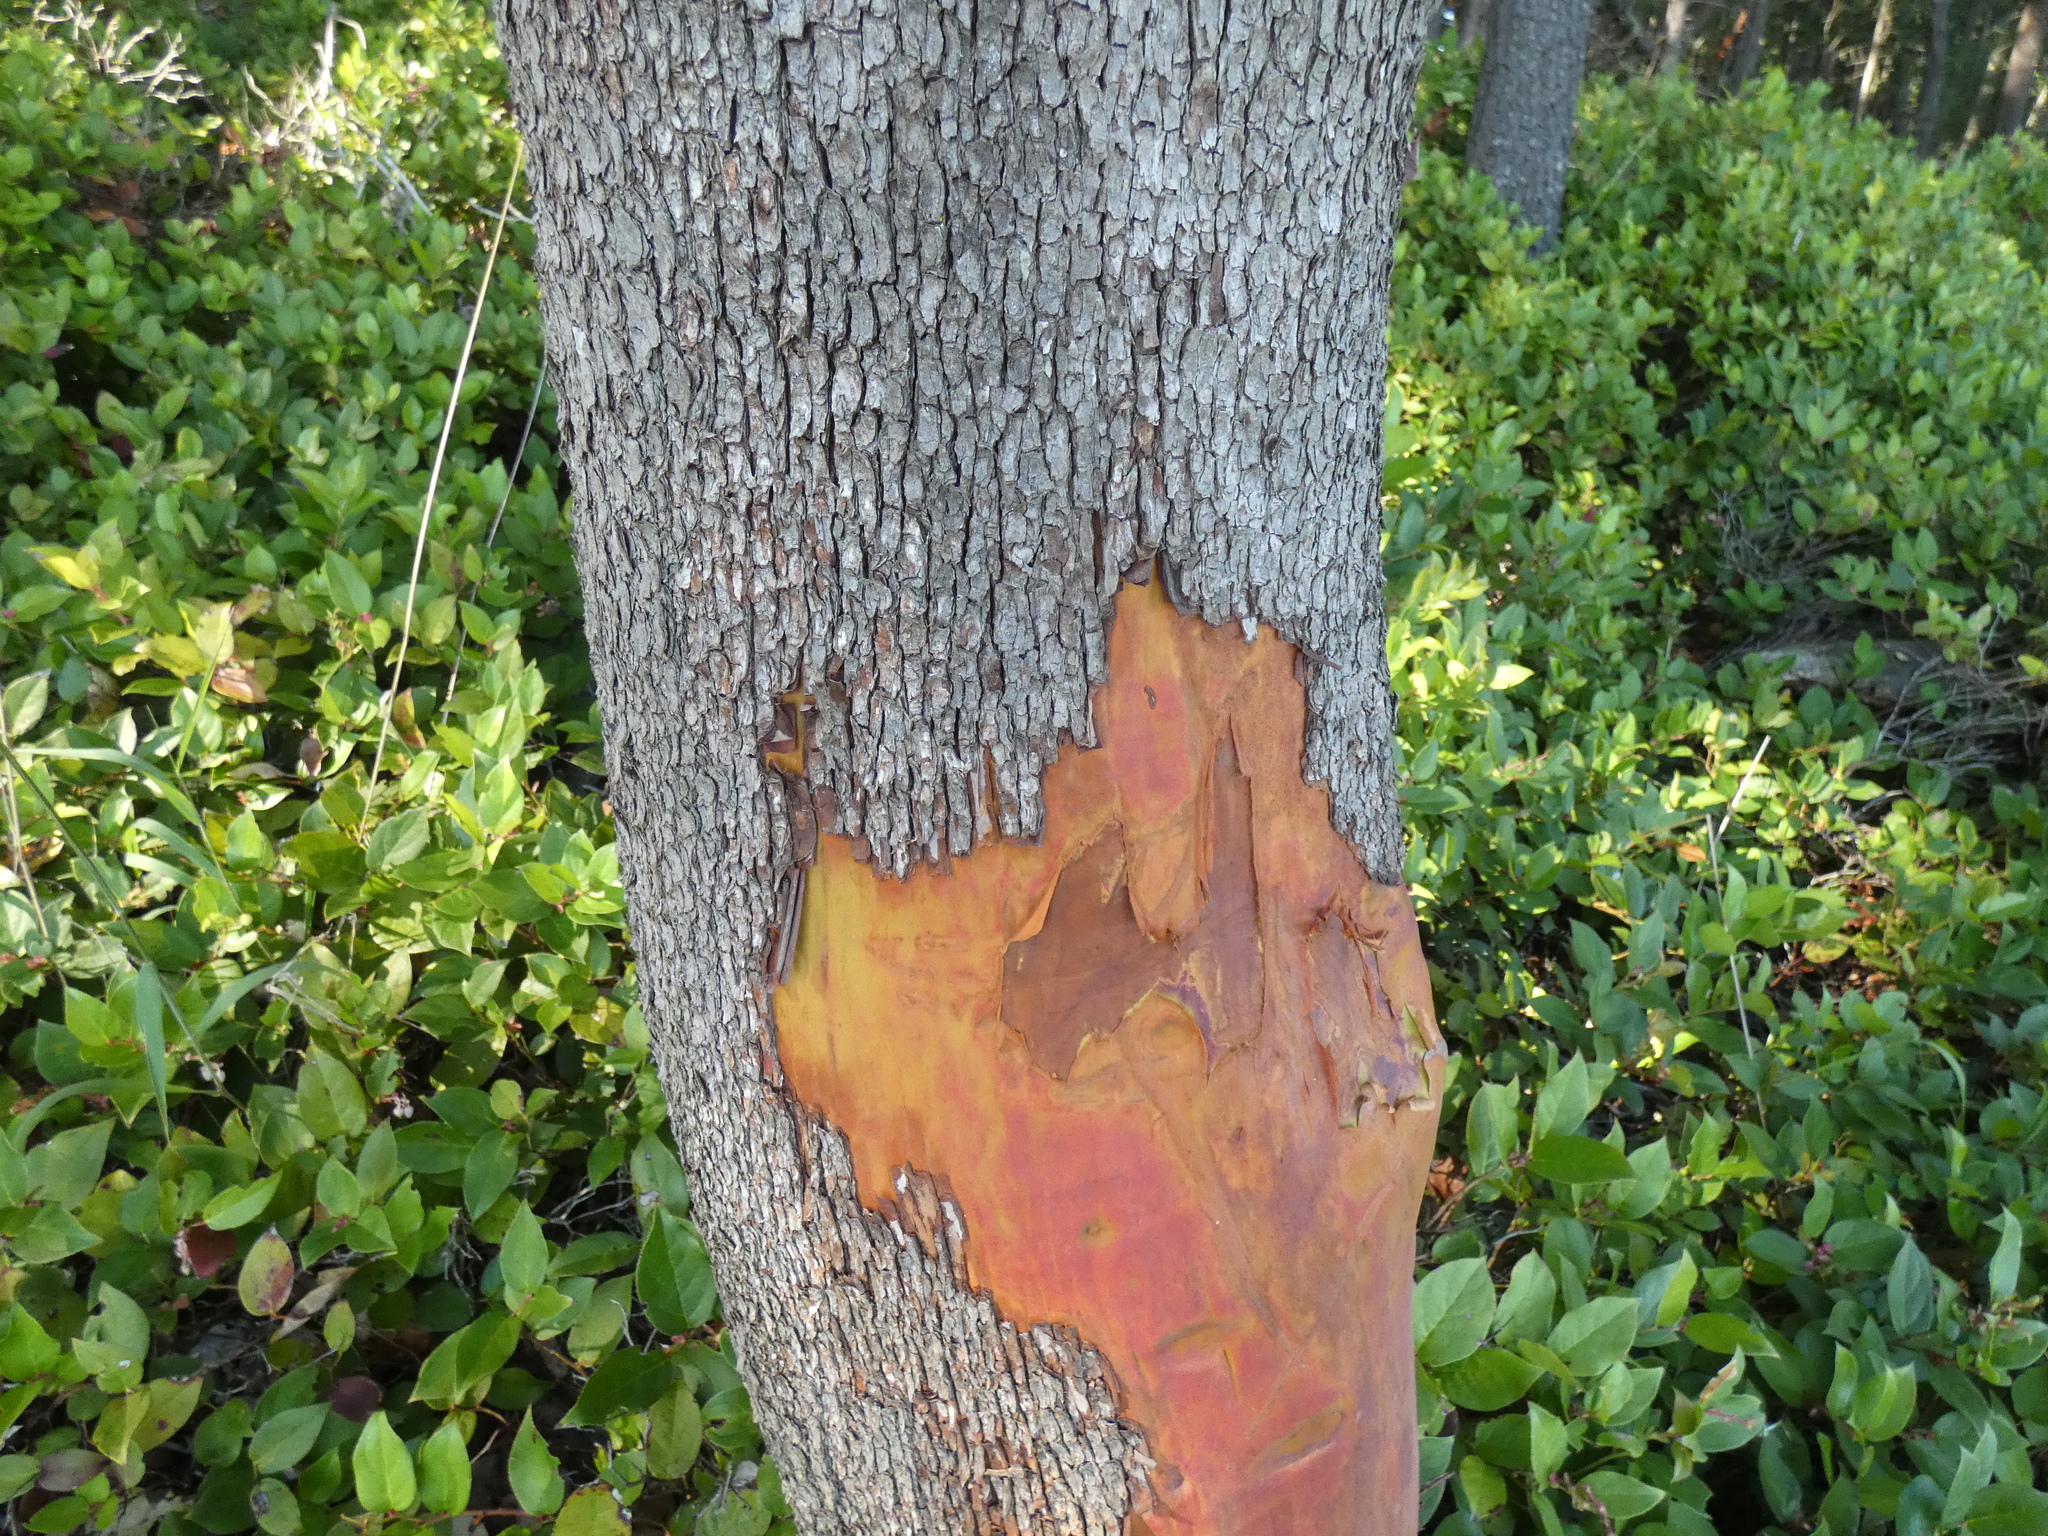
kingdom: Plantae
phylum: Tracheophyta
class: Magnoliopsida
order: Ericales
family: Ericaceae
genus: Arbutus
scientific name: Arbutus menziesii
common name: Pacific madrone
